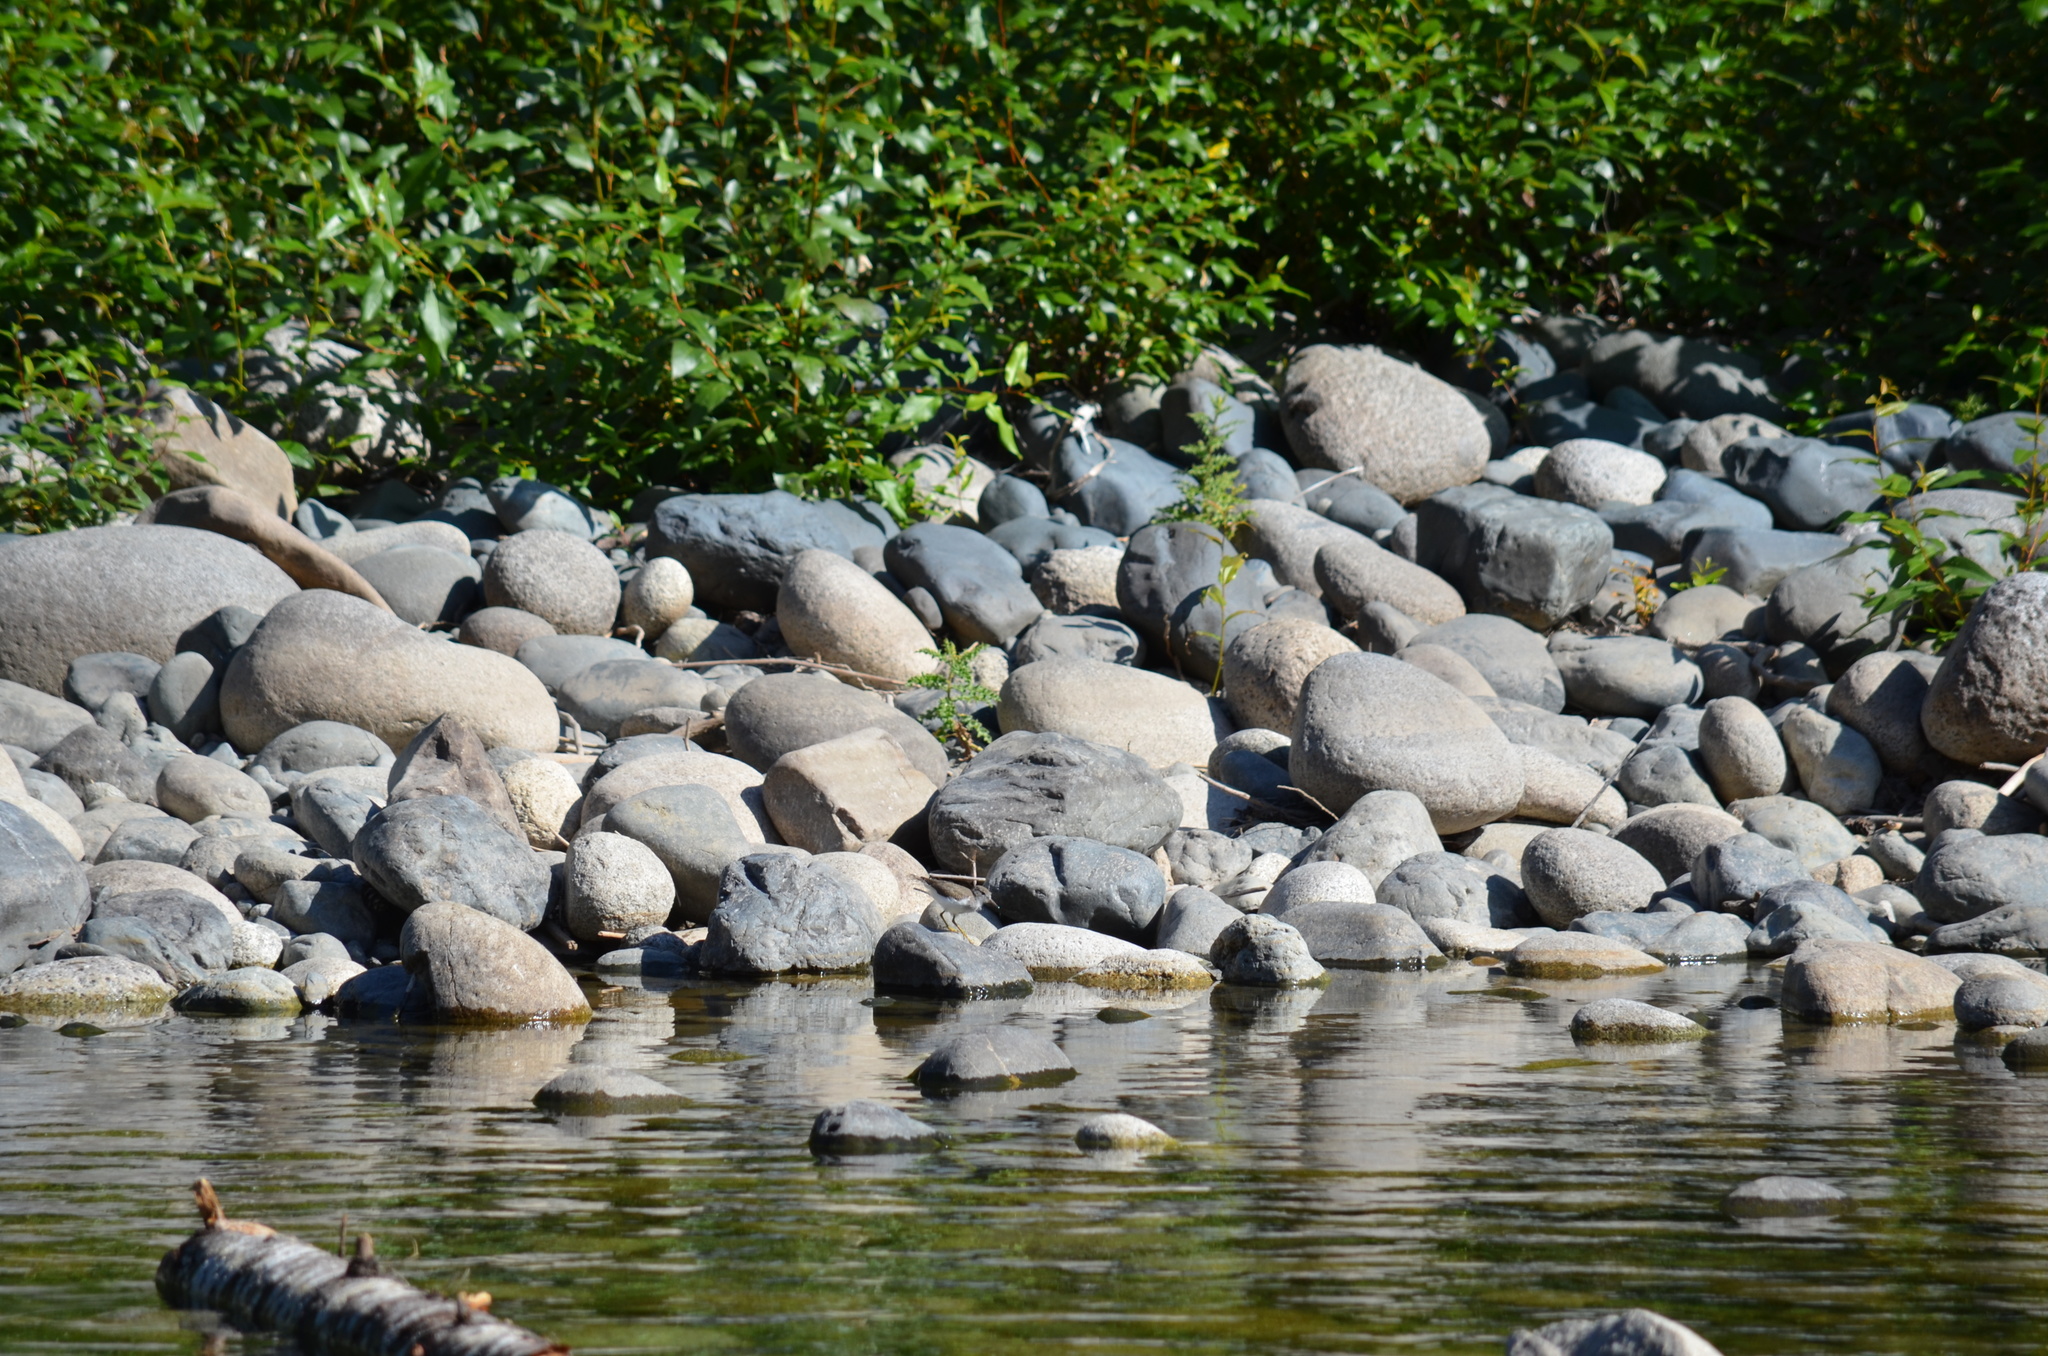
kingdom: Animalia
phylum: Chordata
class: Aves
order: Charadriiformes
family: Scolopacidae
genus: Actitis
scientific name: Actitis macularius
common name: Spotted sandpiper
